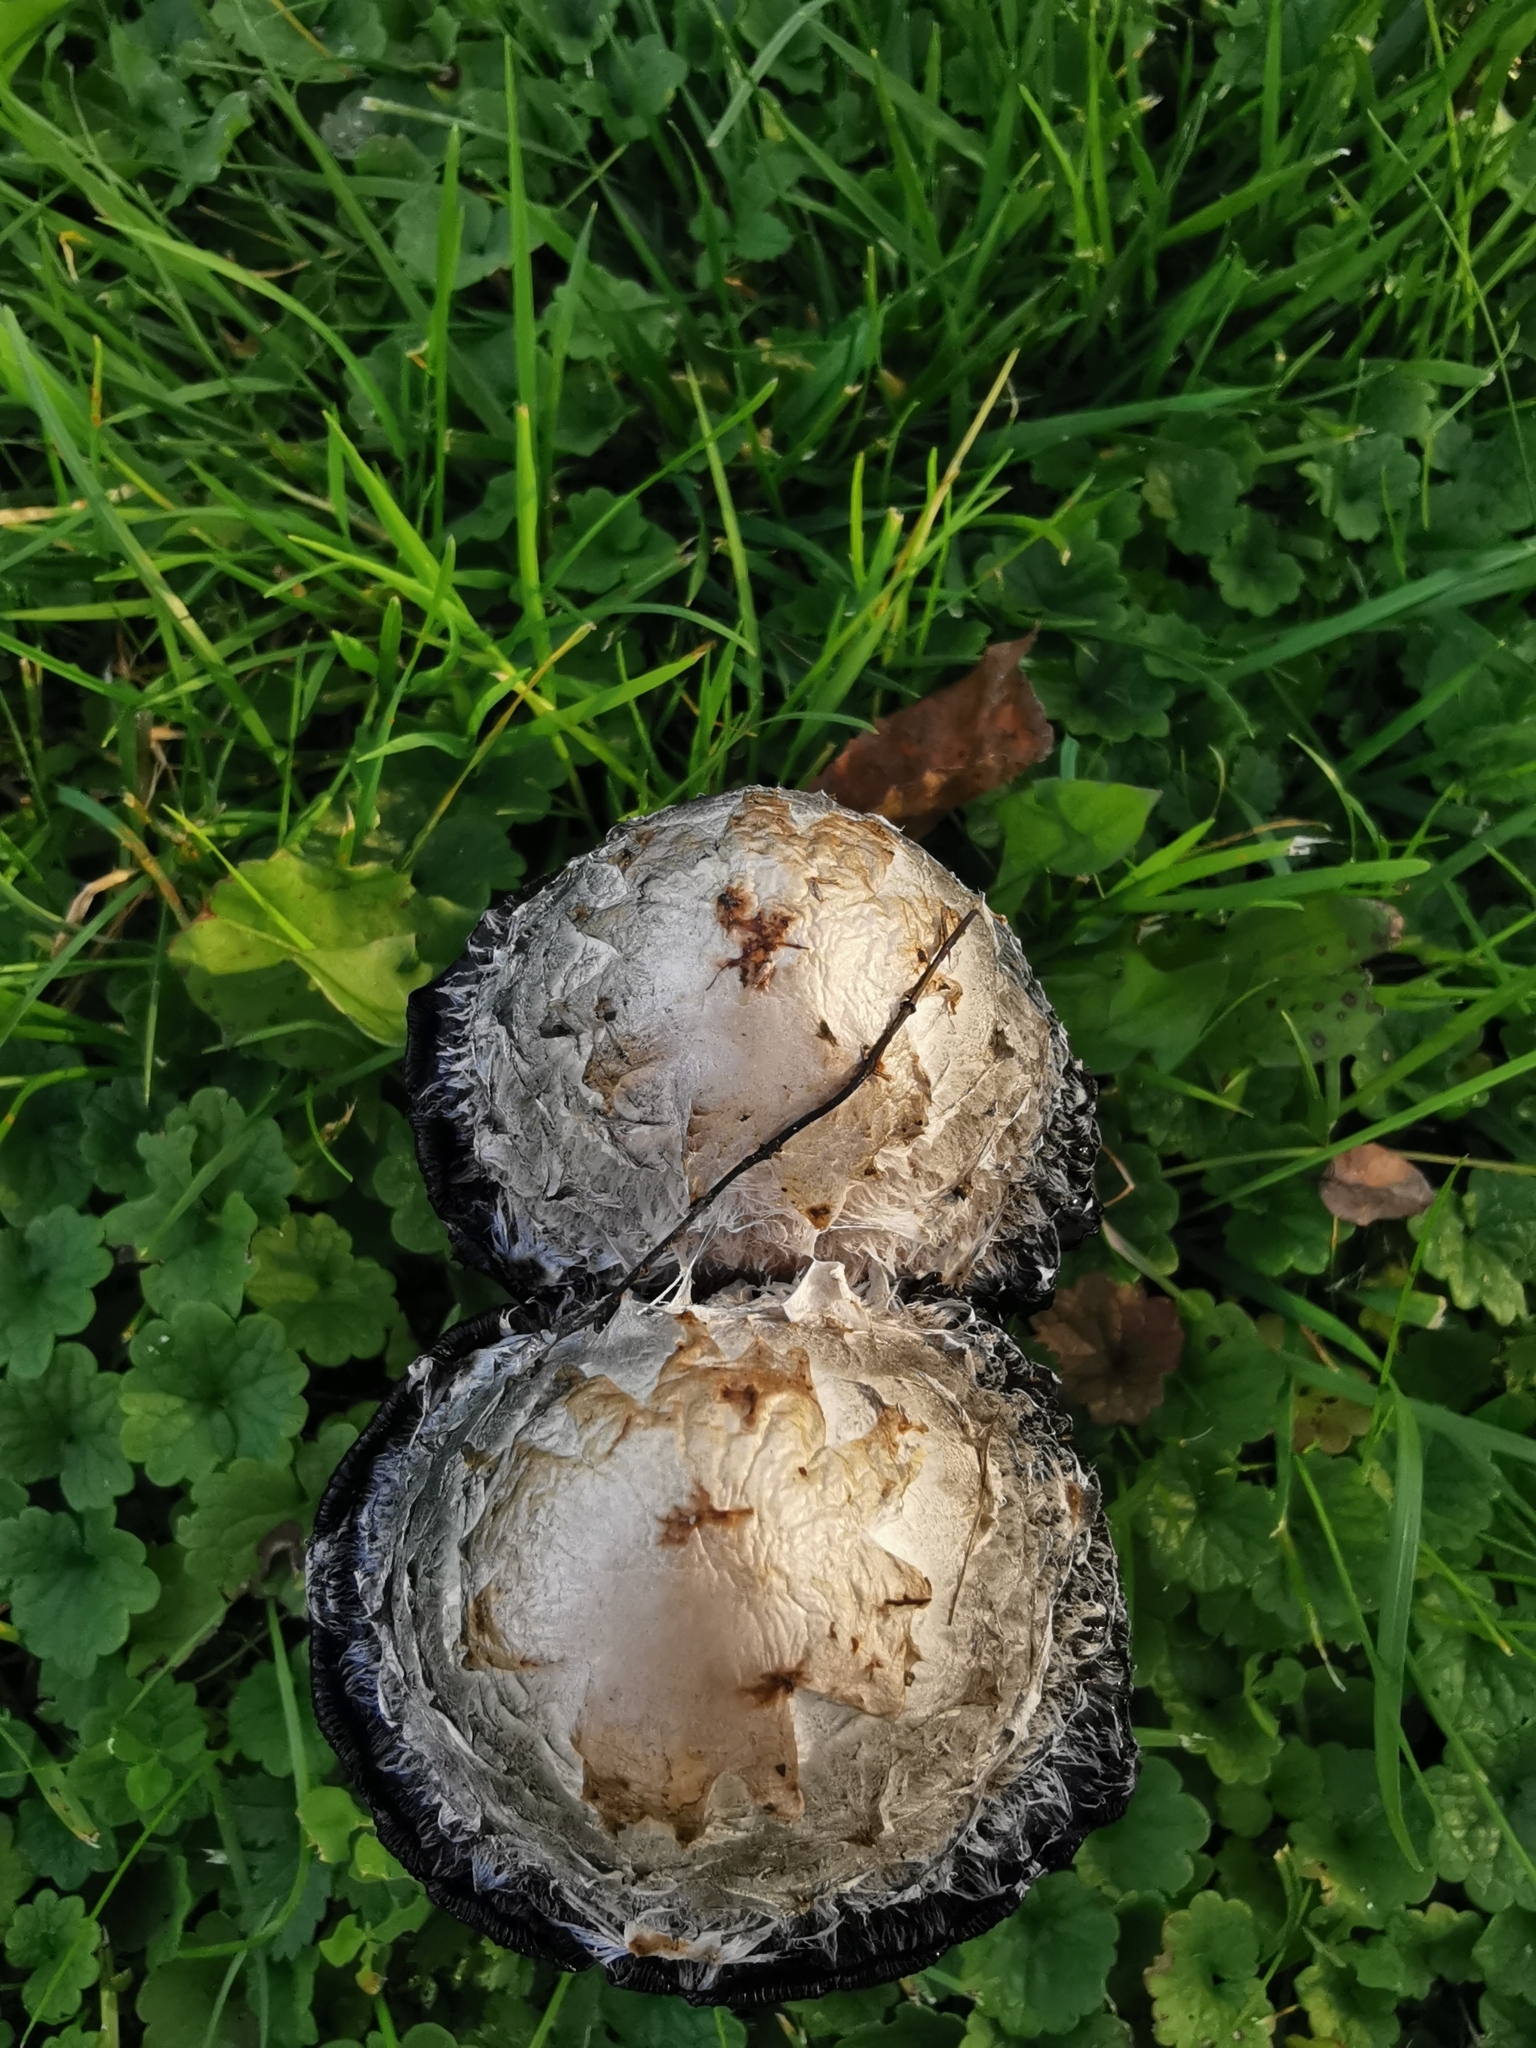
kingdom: Fungi
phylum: Basidiomycota
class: Agaricomycetes
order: Agaricales
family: Agaricaceae
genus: Coprinus
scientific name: Coprinus comatus
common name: Lawyer's wig
